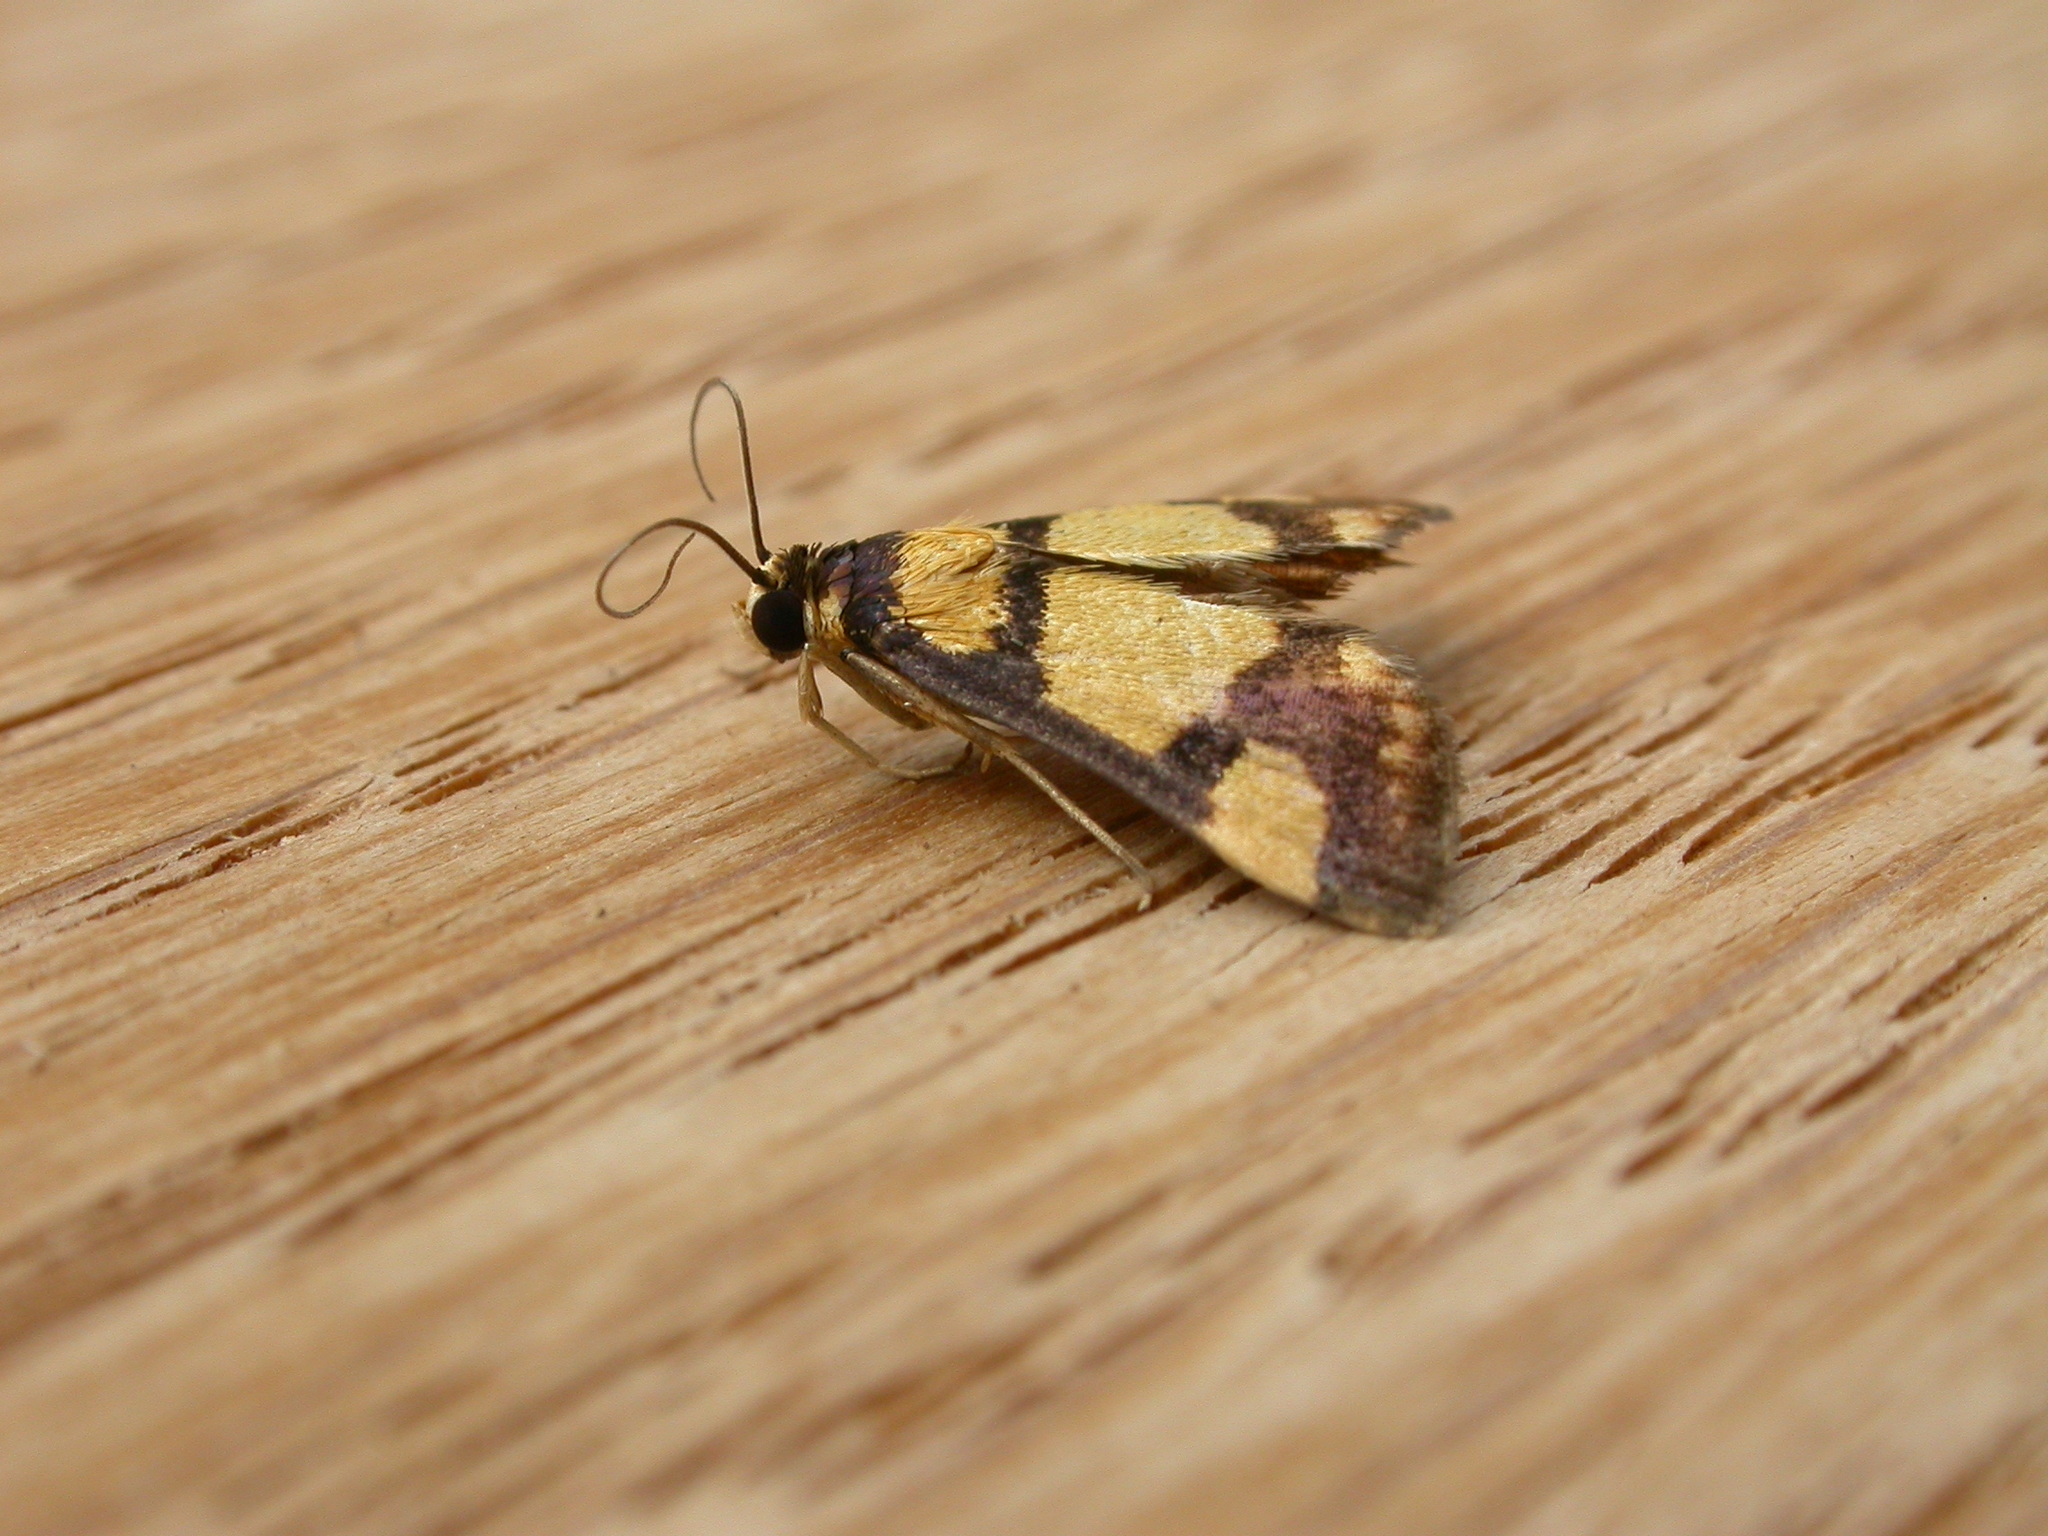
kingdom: Animalia
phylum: Arthropoda
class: Insecta
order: Lepidoptera
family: Crambidae
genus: Deuterarcha
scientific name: Deuterarcha xanthomela
